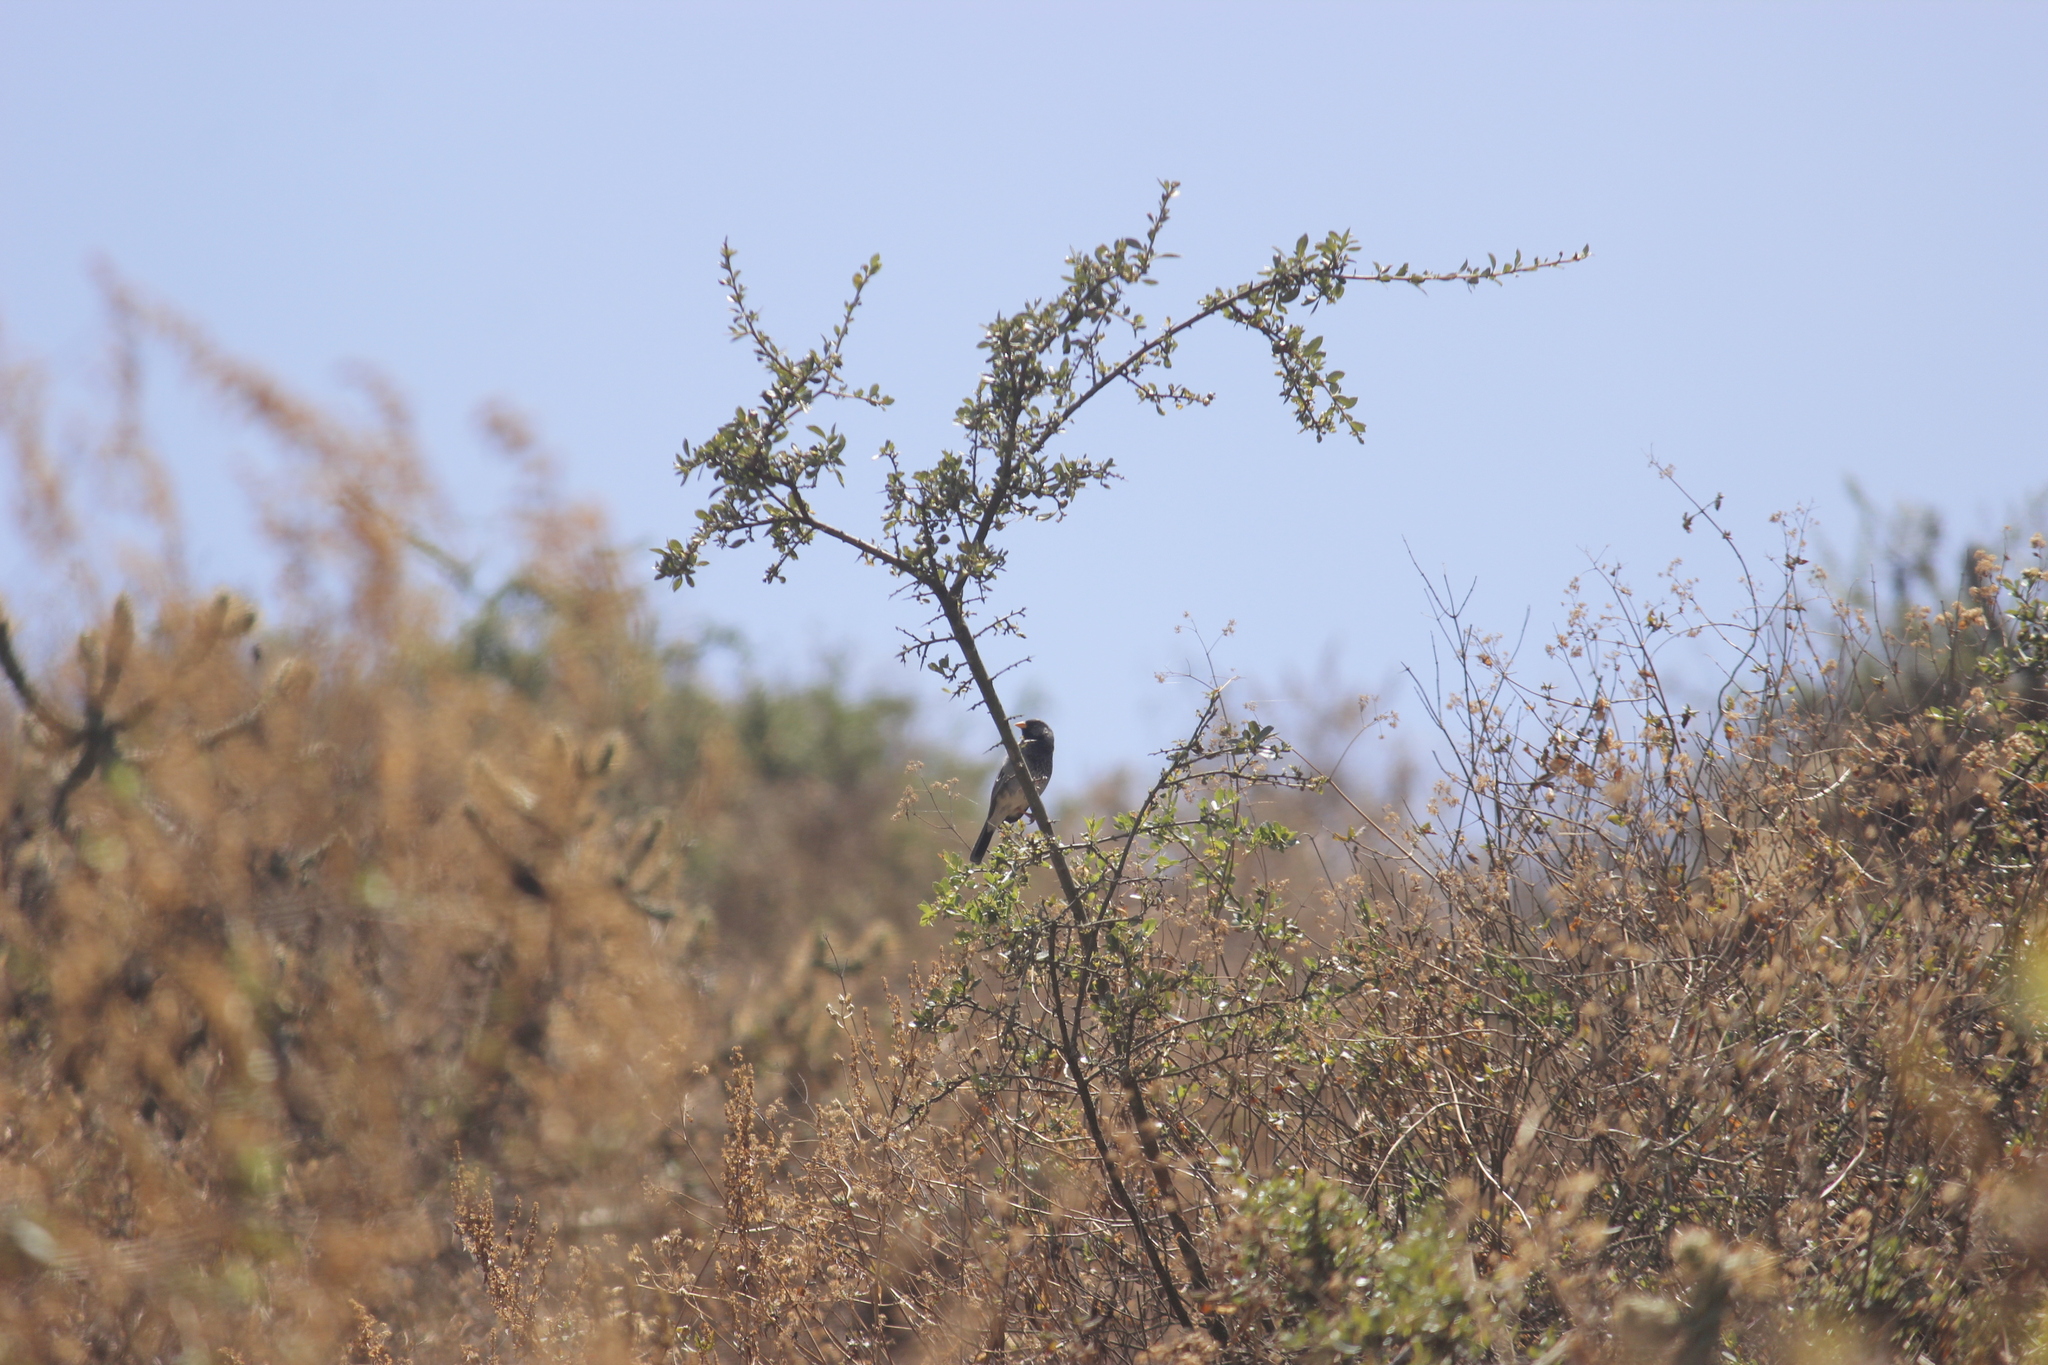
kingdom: Animalia
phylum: Chordata
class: Aves
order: Passeriformes
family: Thraupidae
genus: Rhopospina
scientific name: Rhopospina fruticeti
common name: Mourning sierra finch
